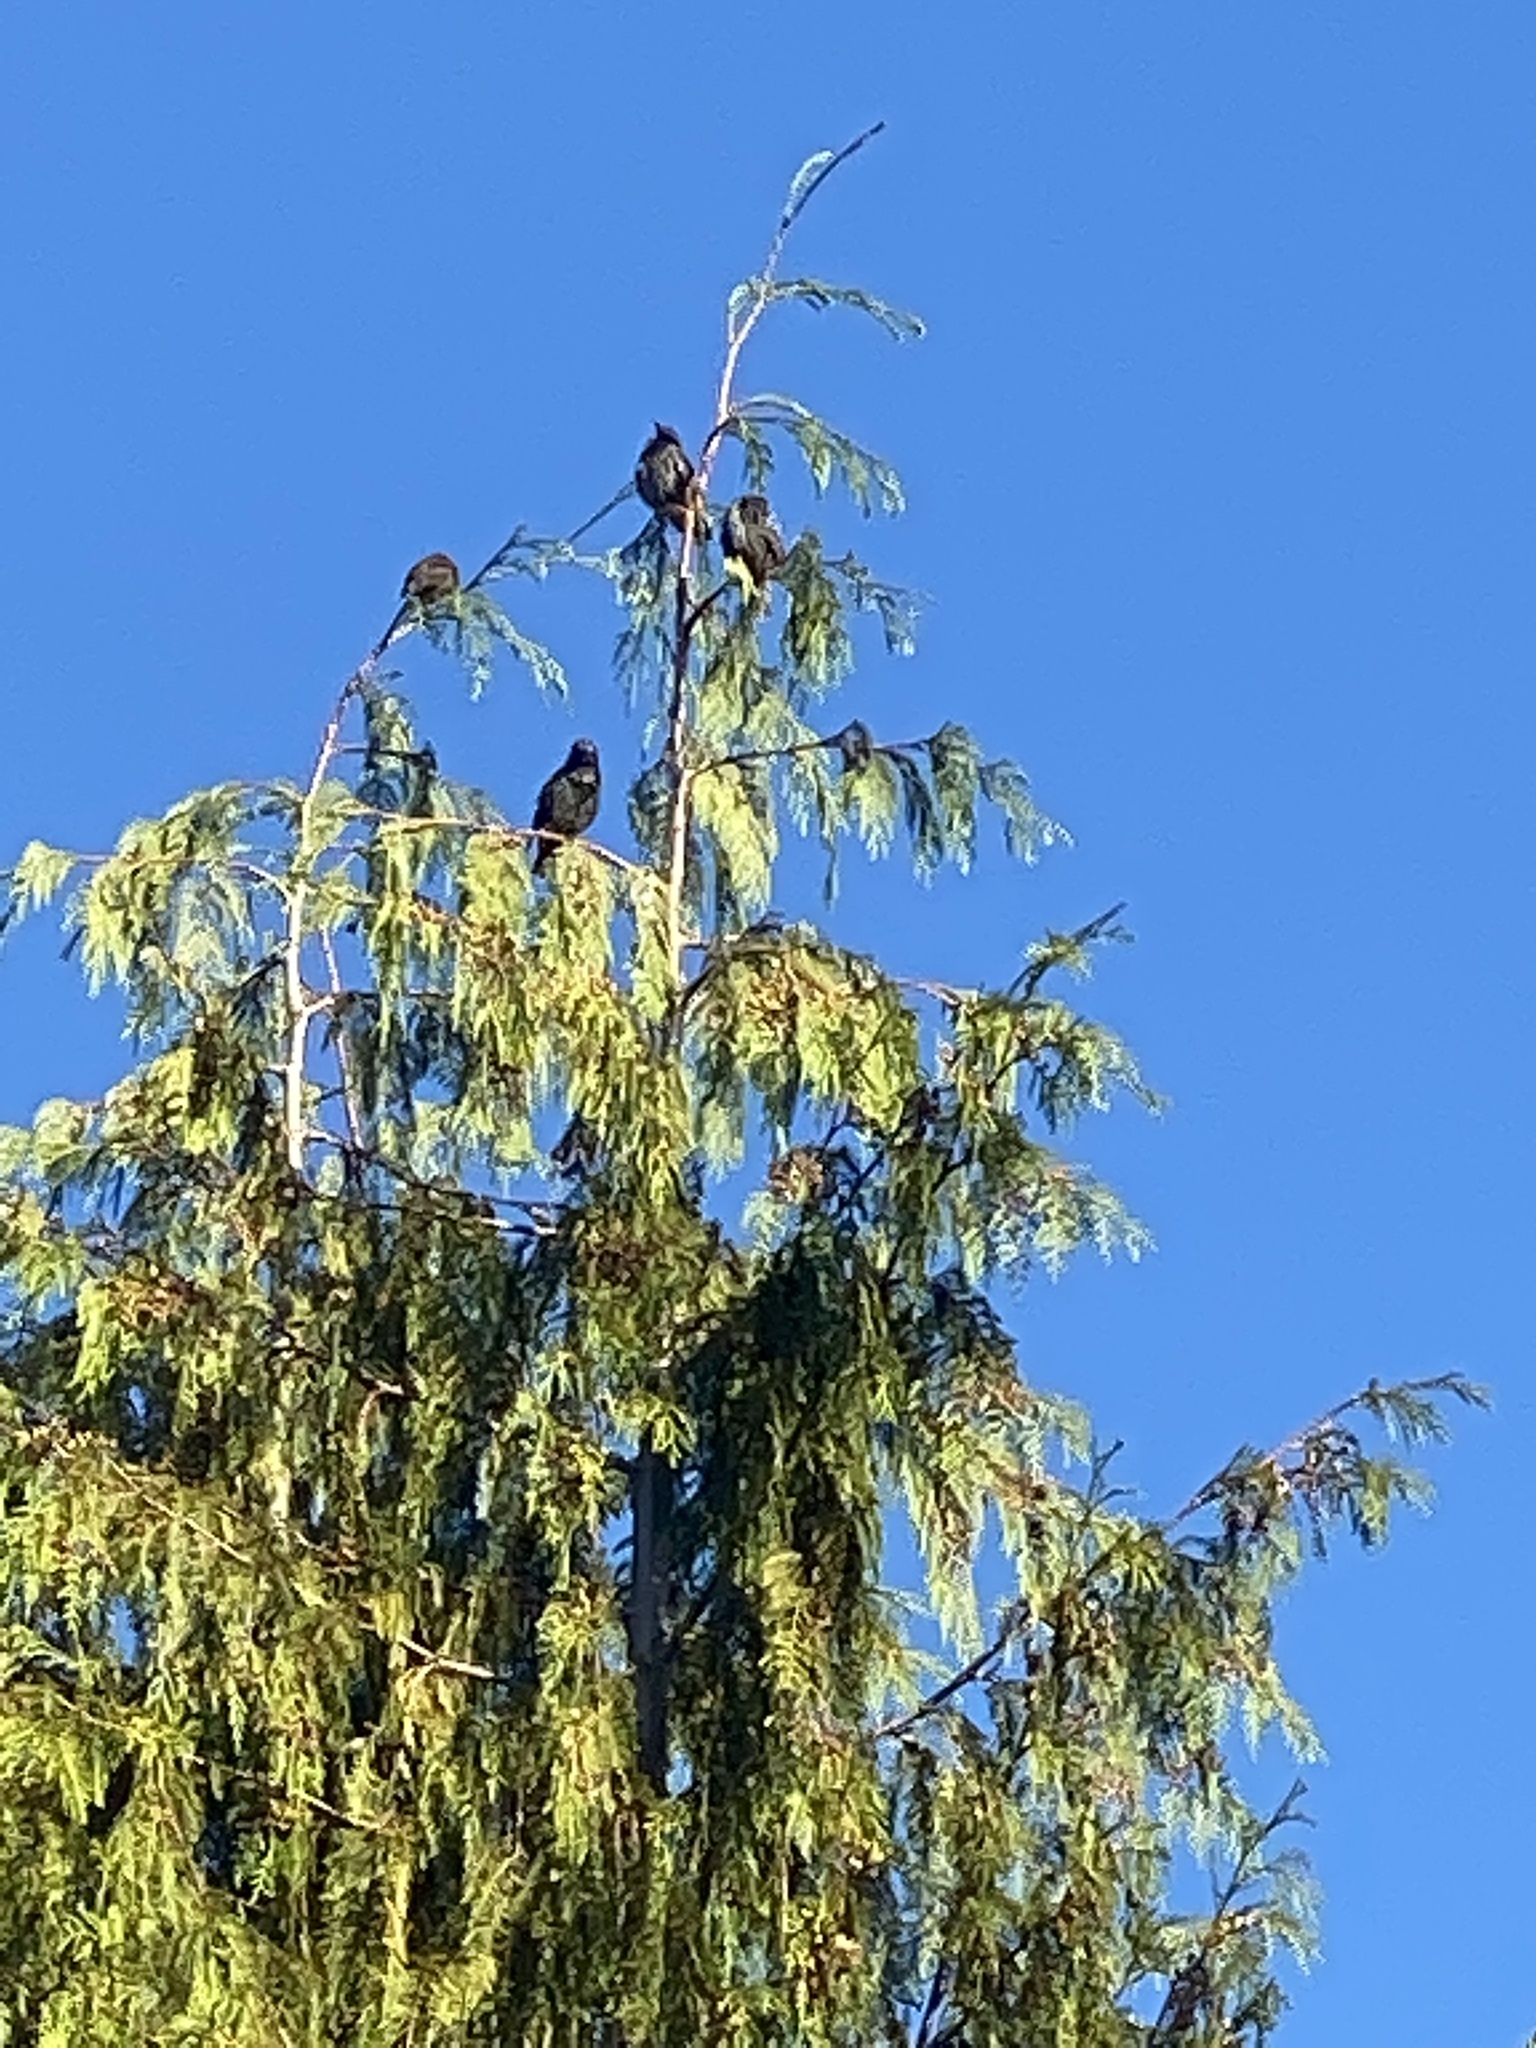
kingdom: Animalia
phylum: Chordata
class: Aves
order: Passeriformes
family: Sturnidae
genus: Sturnus
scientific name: Sturnus vulgaris
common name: Common starling
